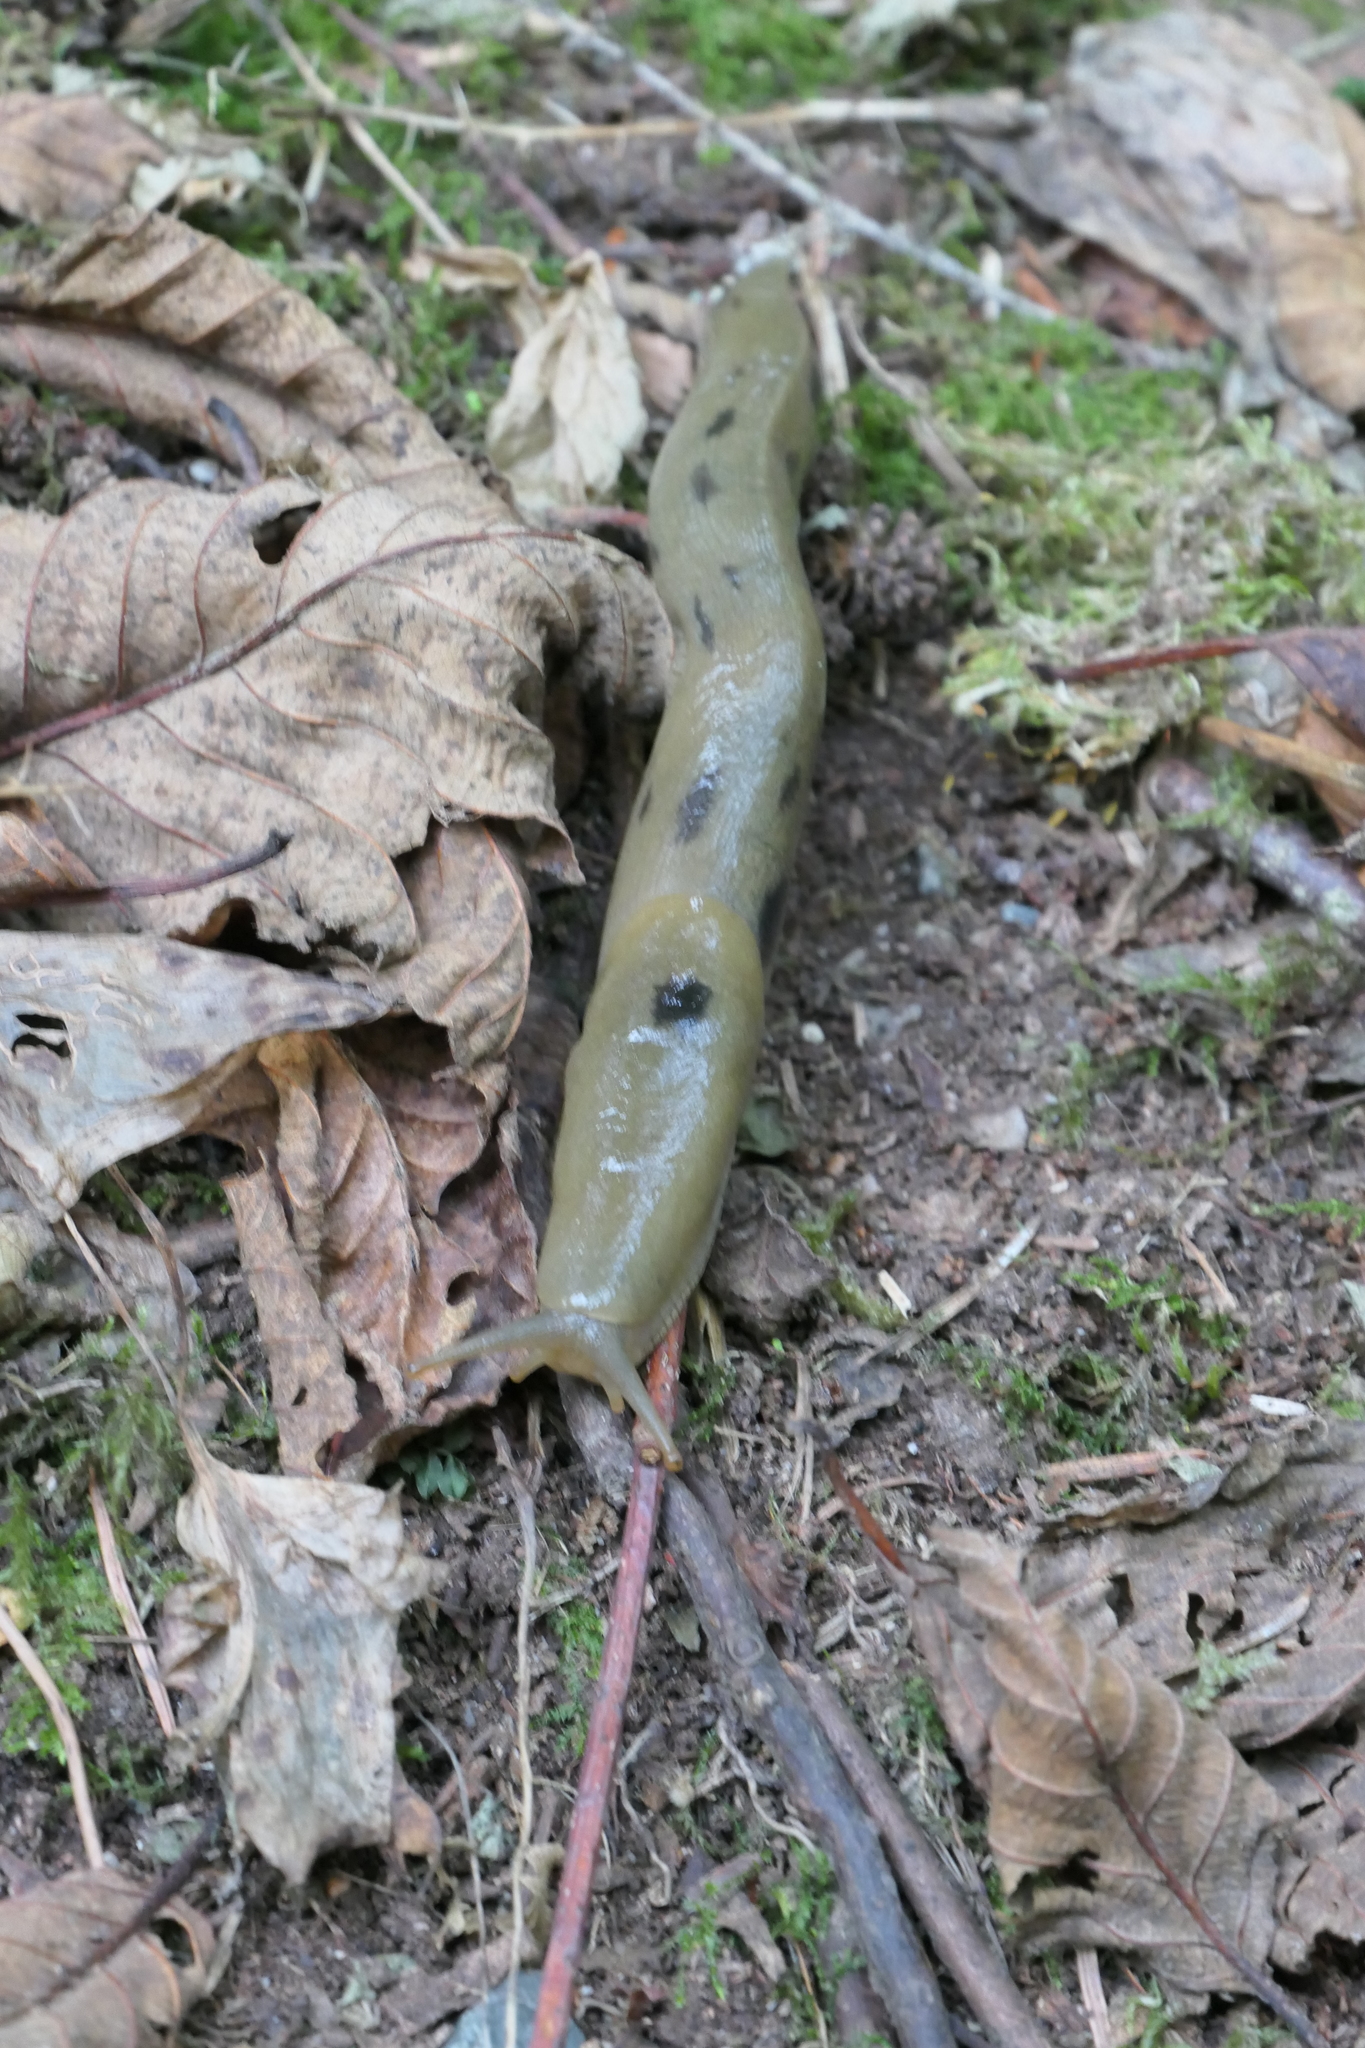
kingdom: Animalia
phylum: Mollusca
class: Gastropoda
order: Stylommatophora
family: Ariolimacidae
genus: Ariolimax
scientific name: Ariolimax columbianus
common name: Pacific banana slug
